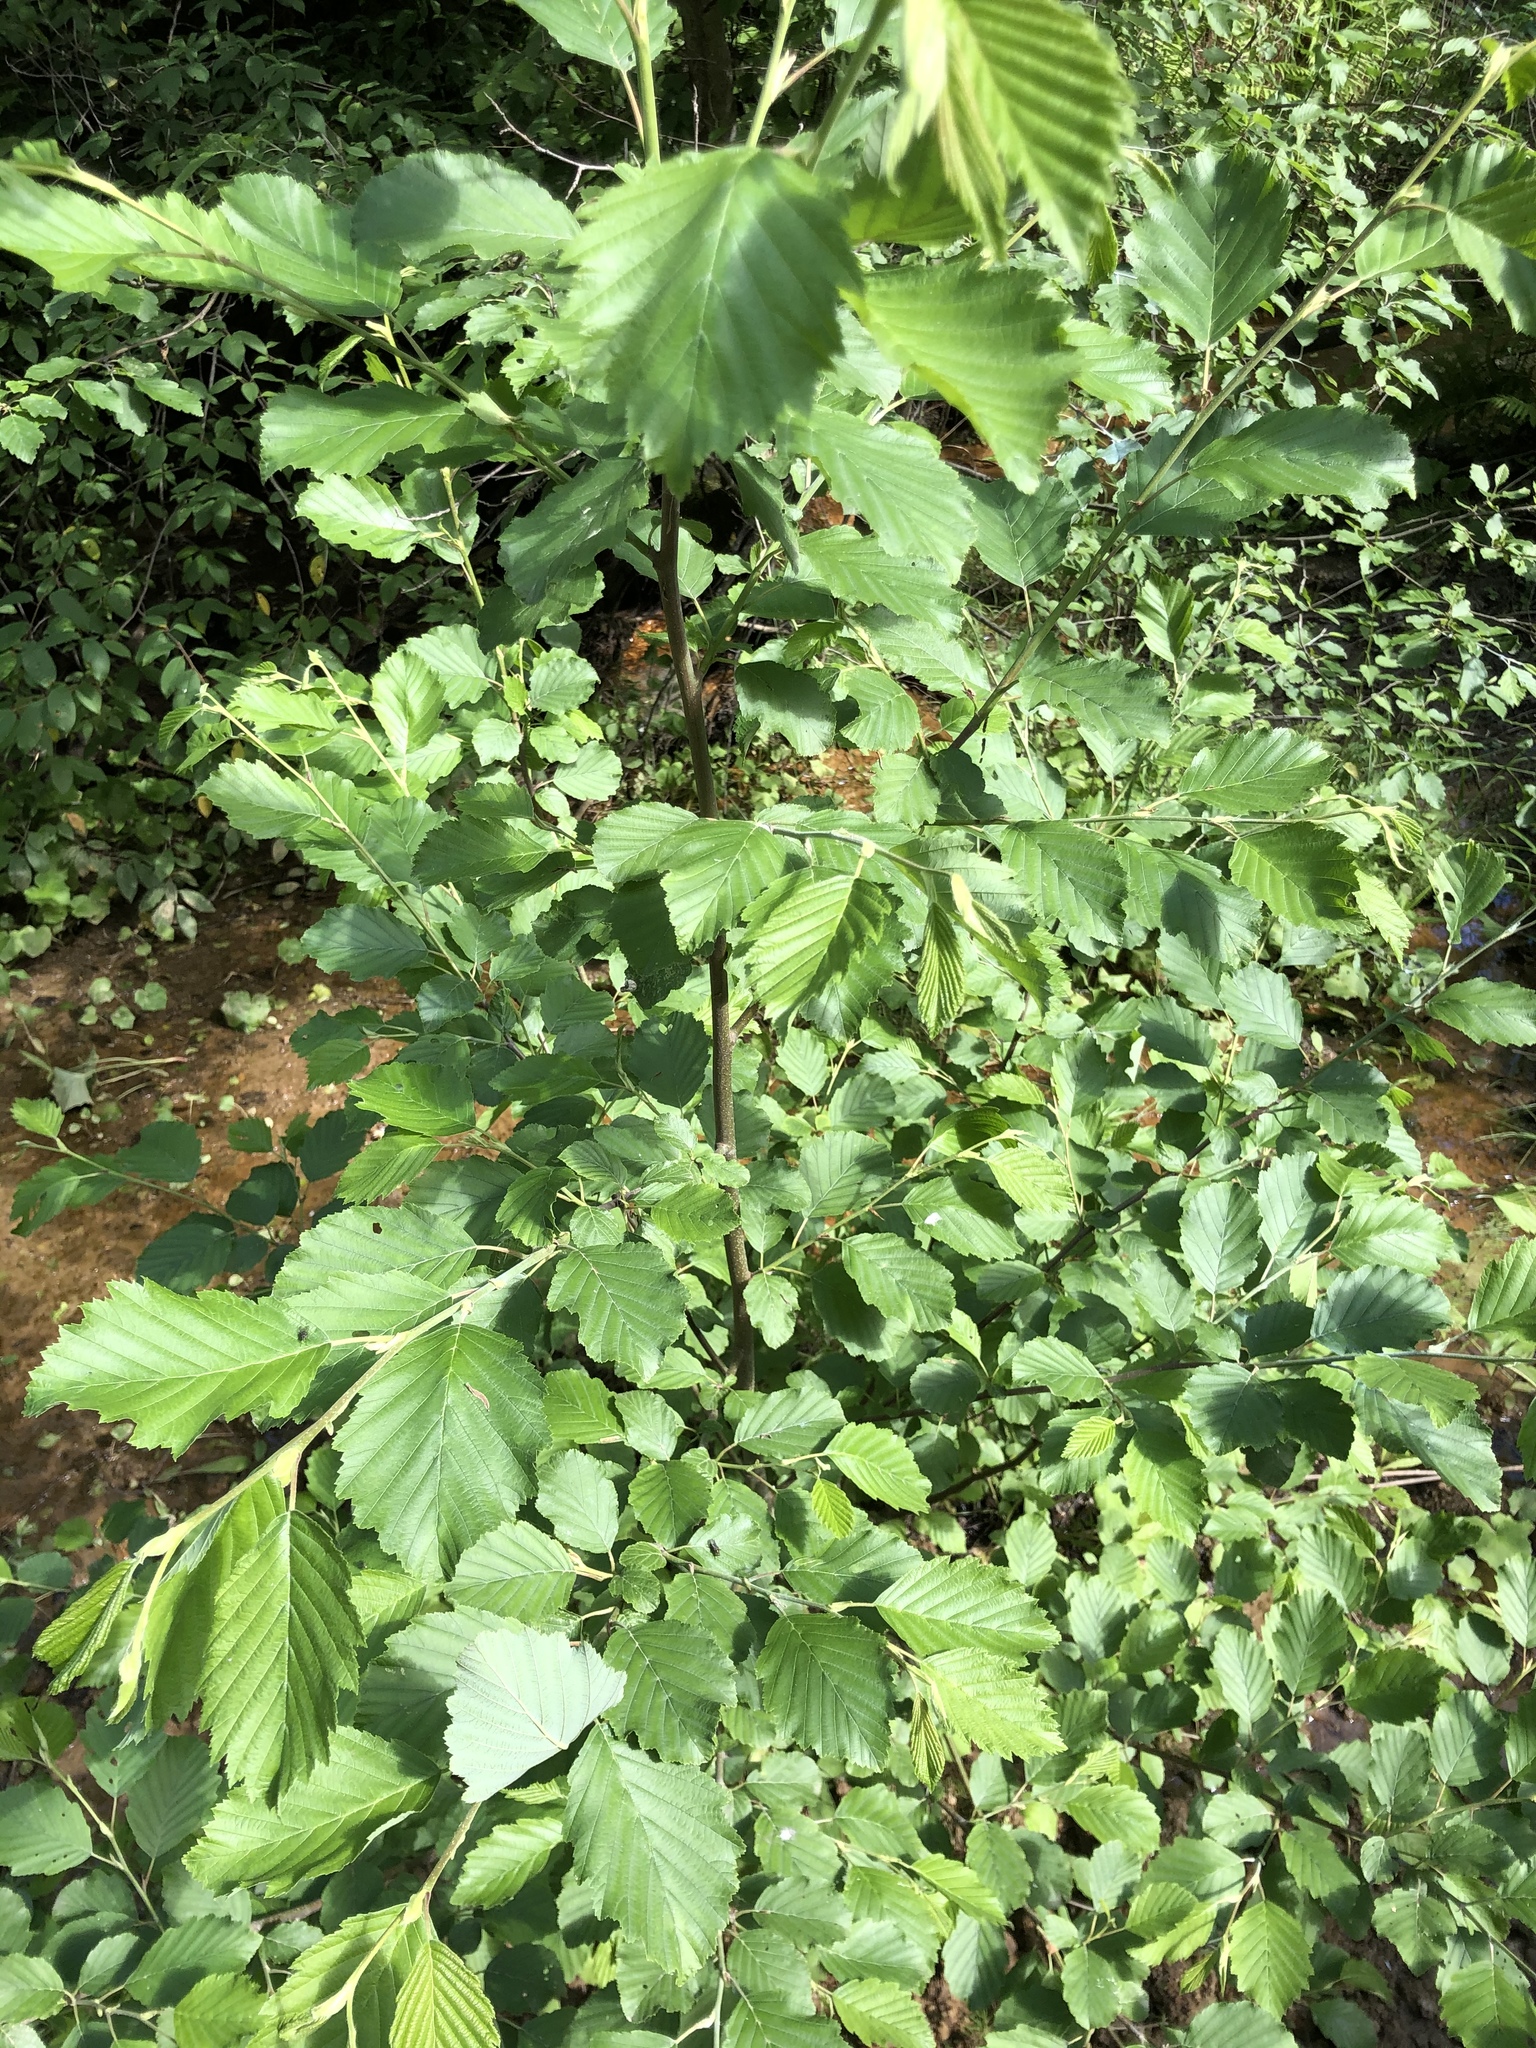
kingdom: Plantae
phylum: Tracheophyta
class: Magnoliopsida
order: Fagales
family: Betulaceae
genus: Alnus
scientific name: Alnus incana
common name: Grey alder
